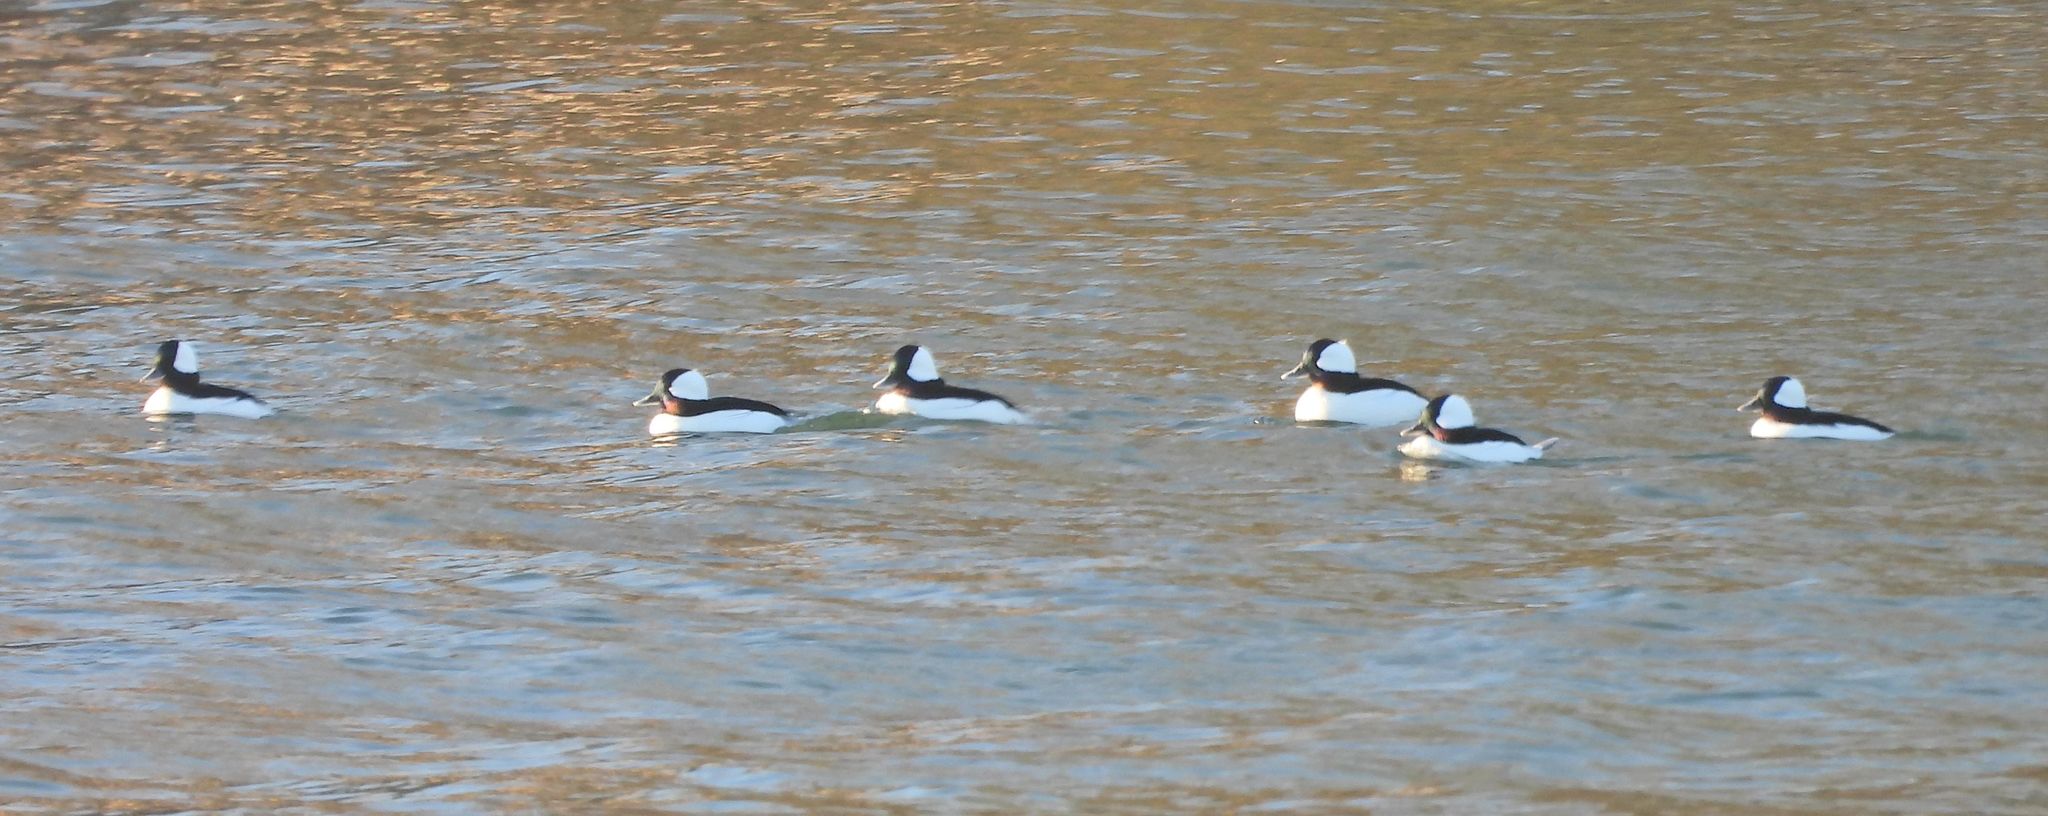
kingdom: Animalia
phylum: Chordata
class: Aves
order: Anseriformes
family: Anatidae
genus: Bucephala
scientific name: Bucephala albeola
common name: Bufflehead
